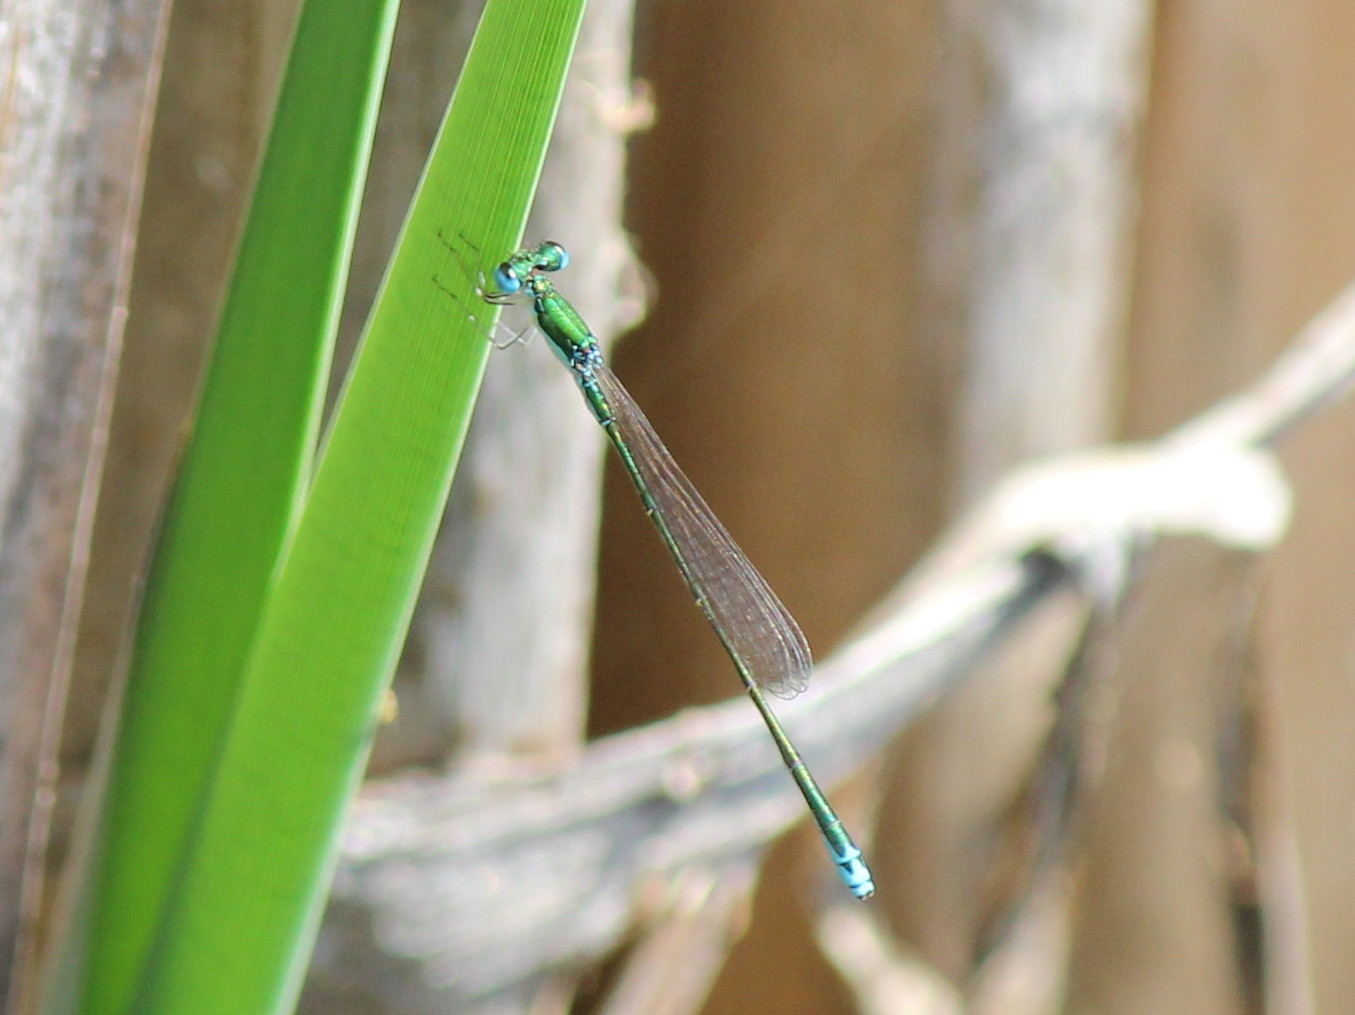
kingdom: Animalia
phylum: Arthropoda
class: Insecta
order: Odonata
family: Coenagrionidae
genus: Nehalennia
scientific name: Nehalennia irene
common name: Sedge sprite
